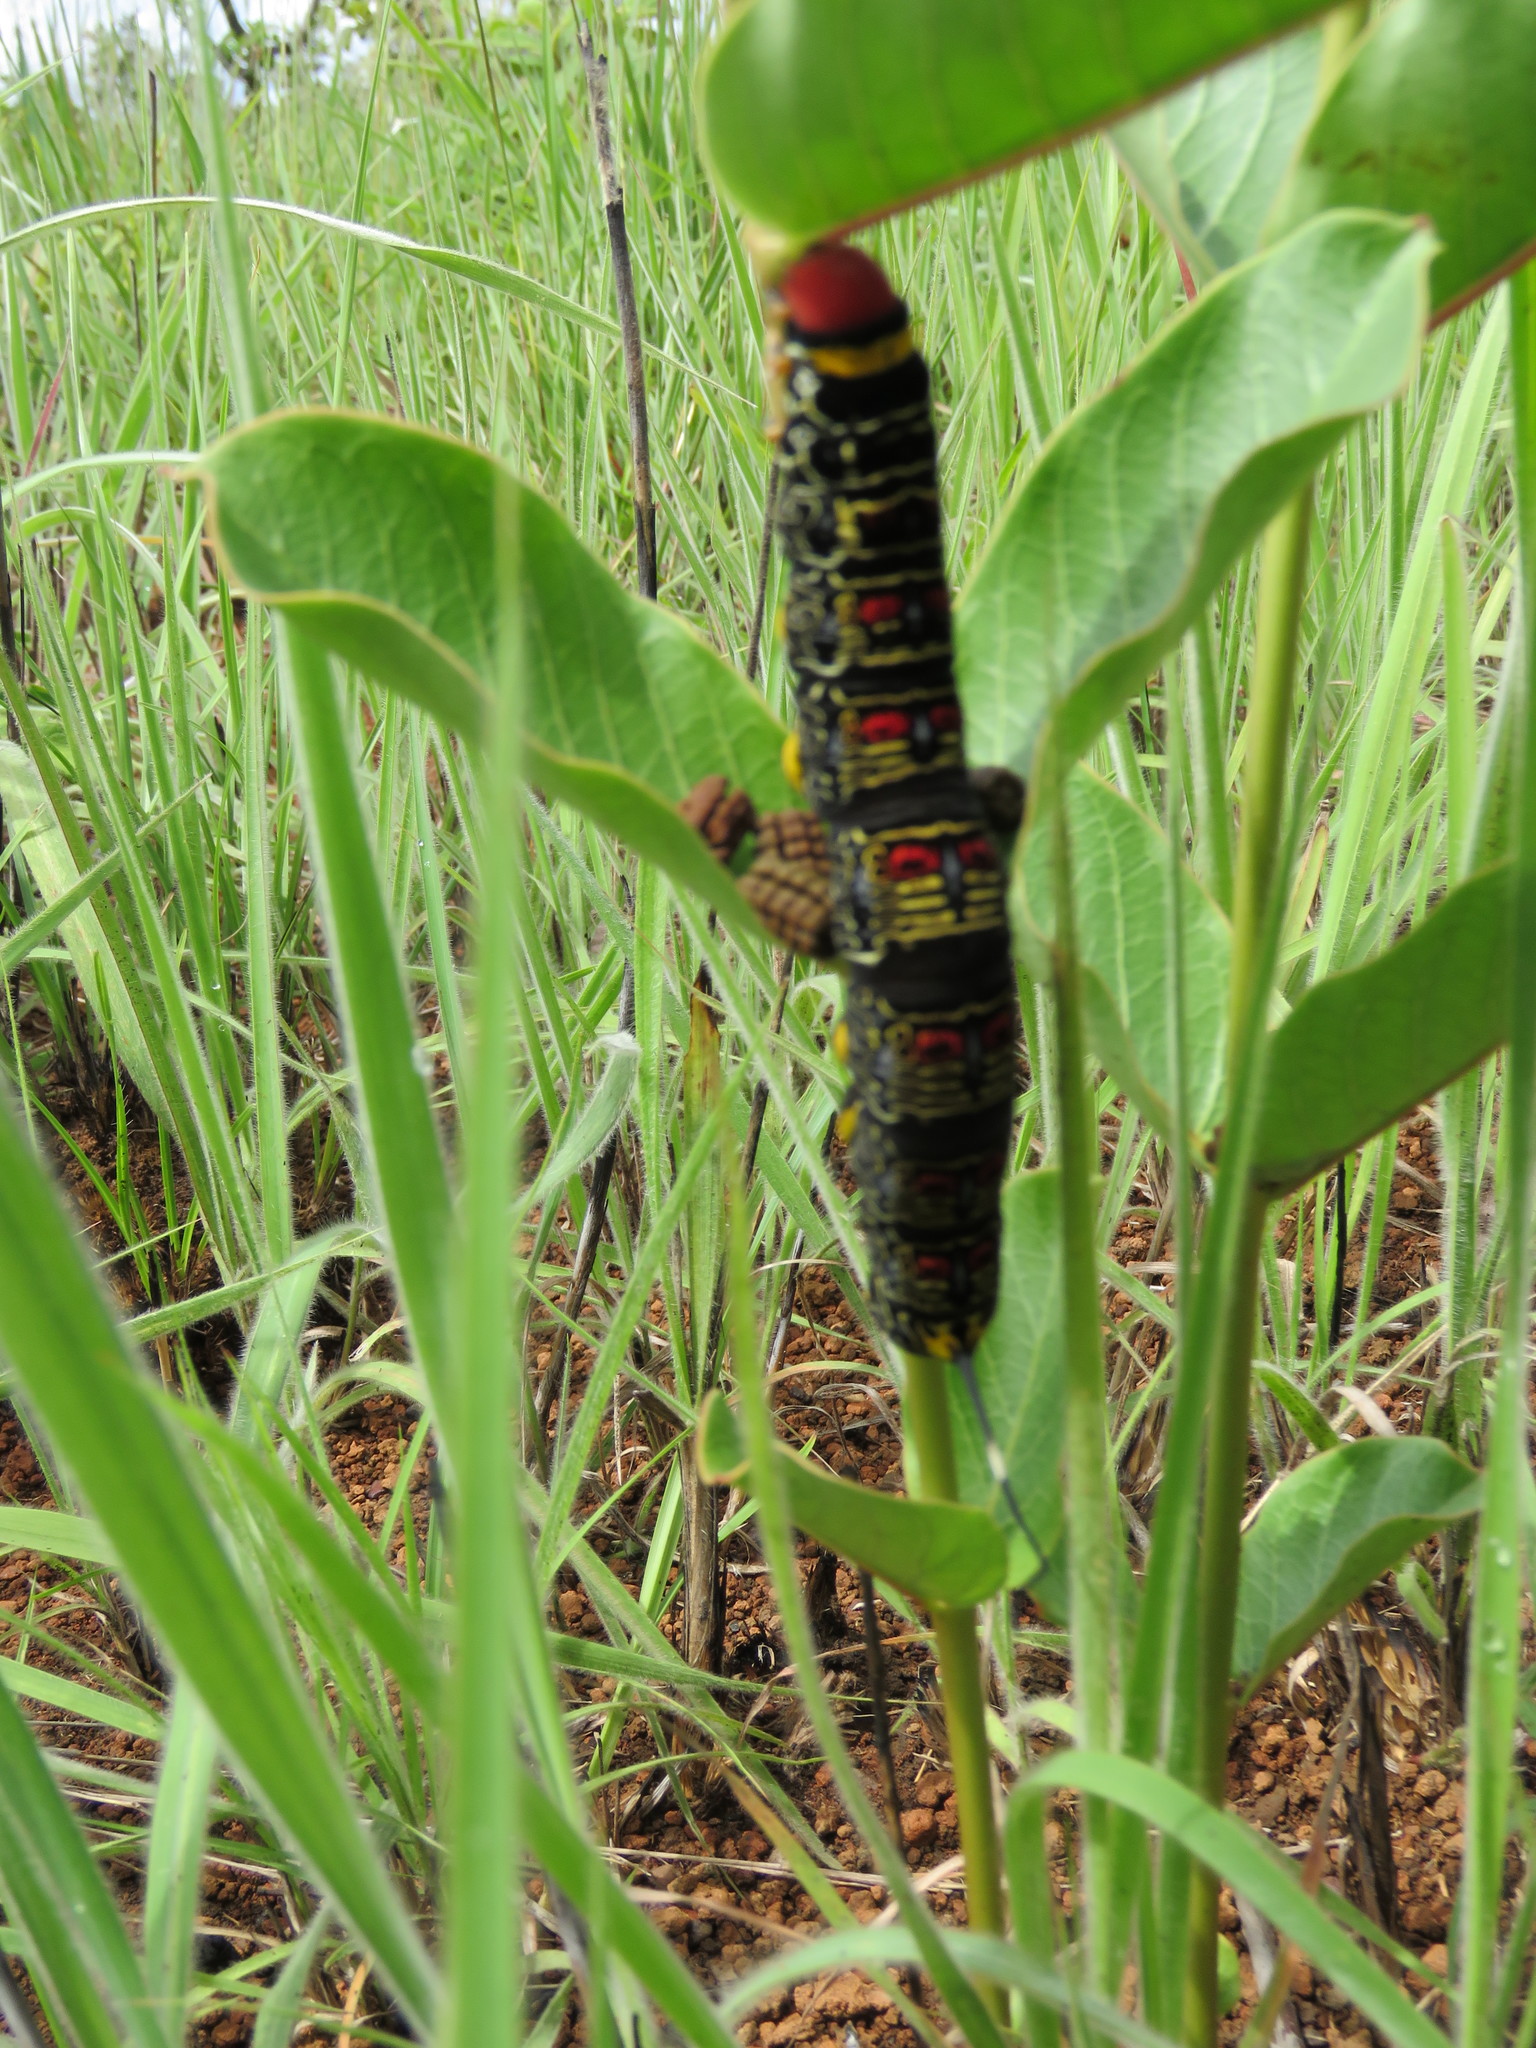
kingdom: Animalia
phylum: Arthropoda
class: Insecta
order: Lepidoptera
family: Sphingidae
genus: Isognathus
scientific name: Isognathus caricae
